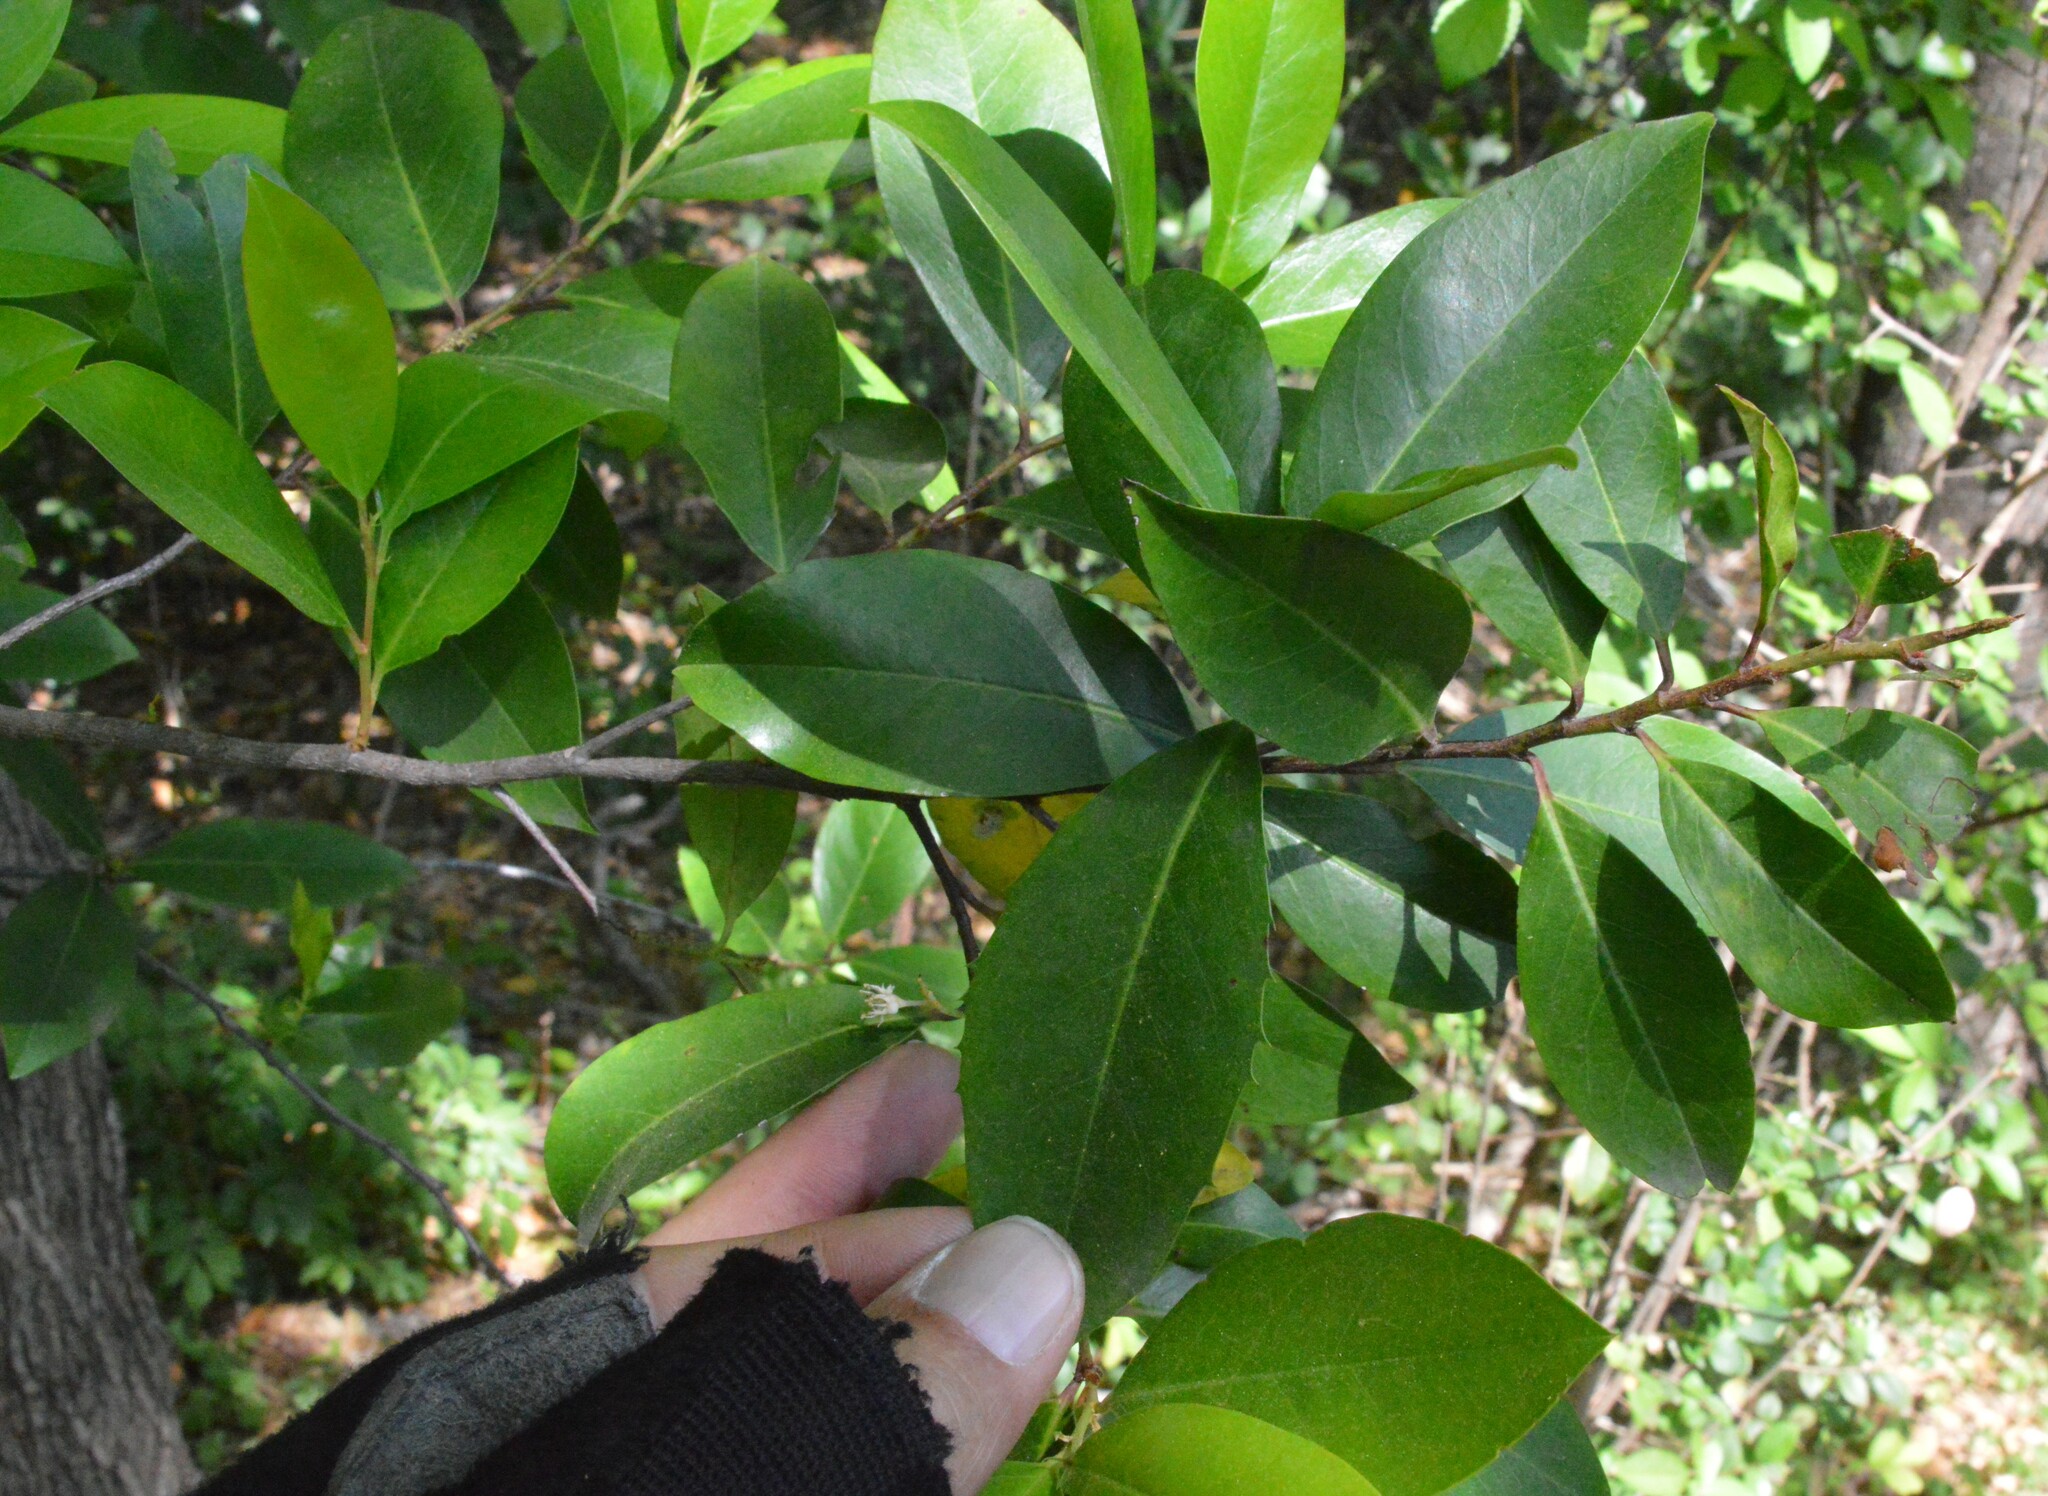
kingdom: Plantae
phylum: Tracheophyta
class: Magnoliopsida
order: Rosales
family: Rosaceae
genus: Prunus
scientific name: Prunus caroliniana
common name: Carolina laurel cherry
